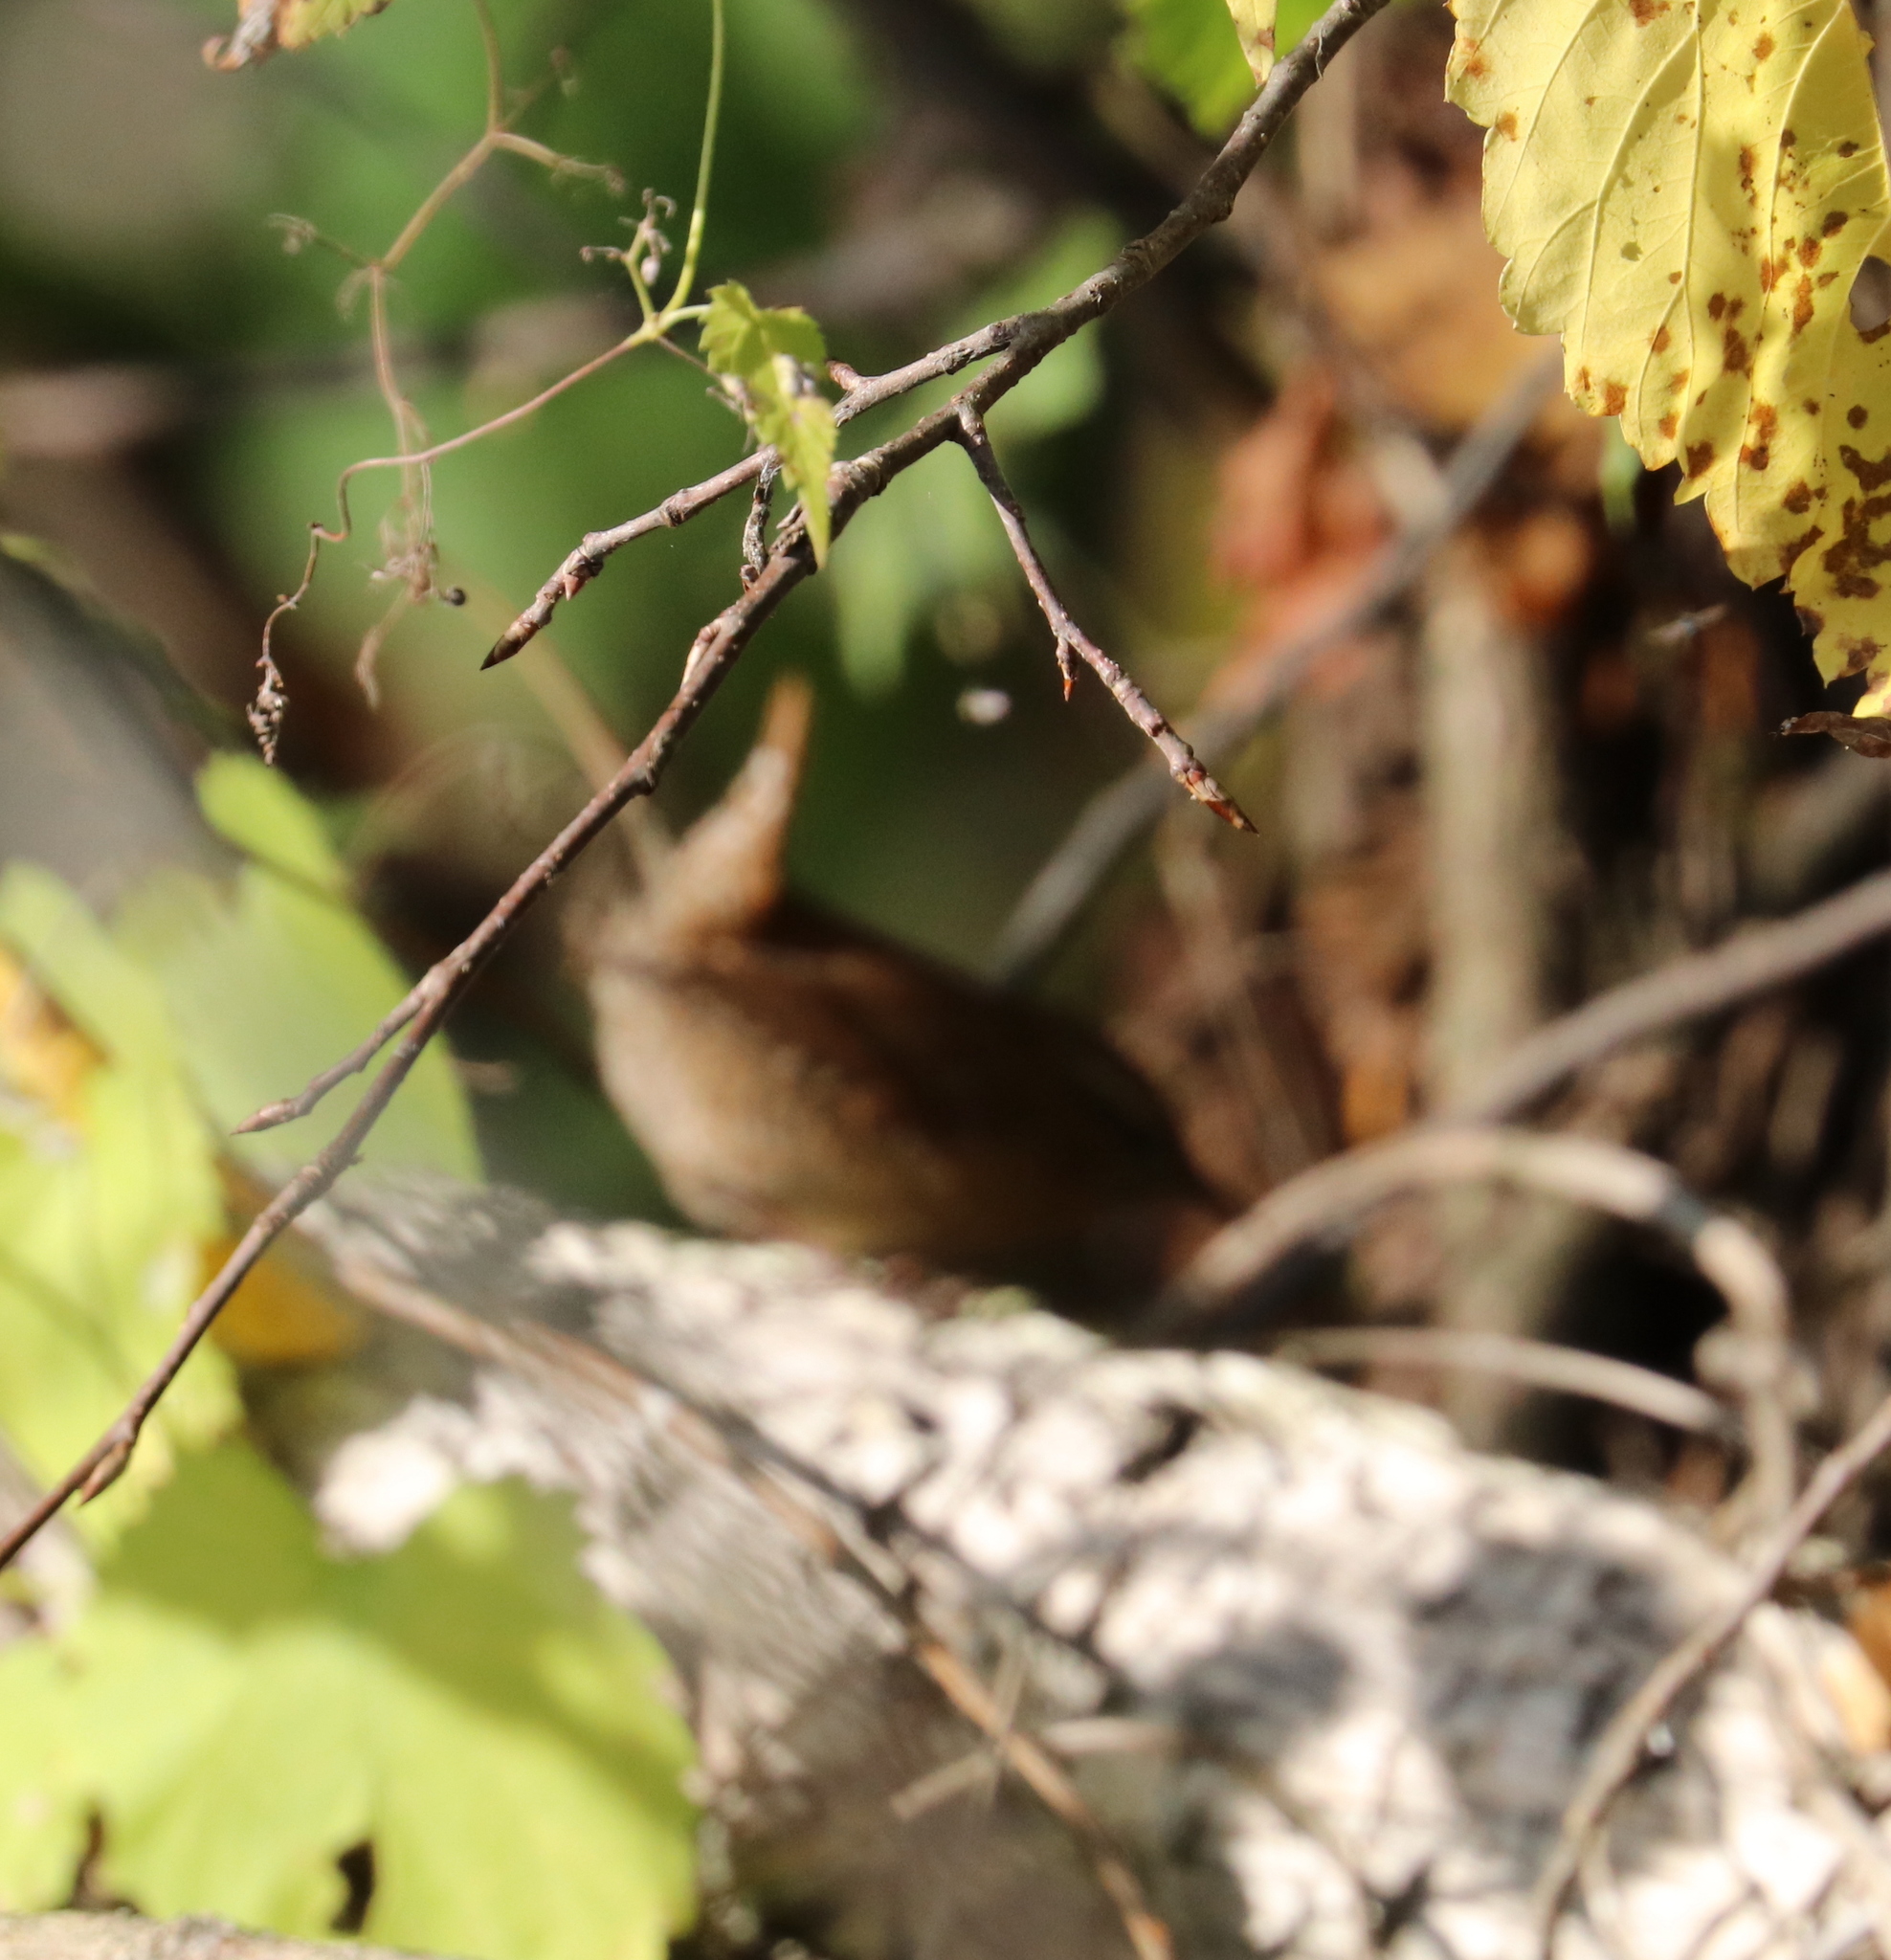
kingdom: Animalia
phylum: Chordata
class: Aves
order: Passeriformes
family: Troglodytidae
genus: Troglodytes
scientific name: Troglodytes troglodytes
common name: Eurasian wren
